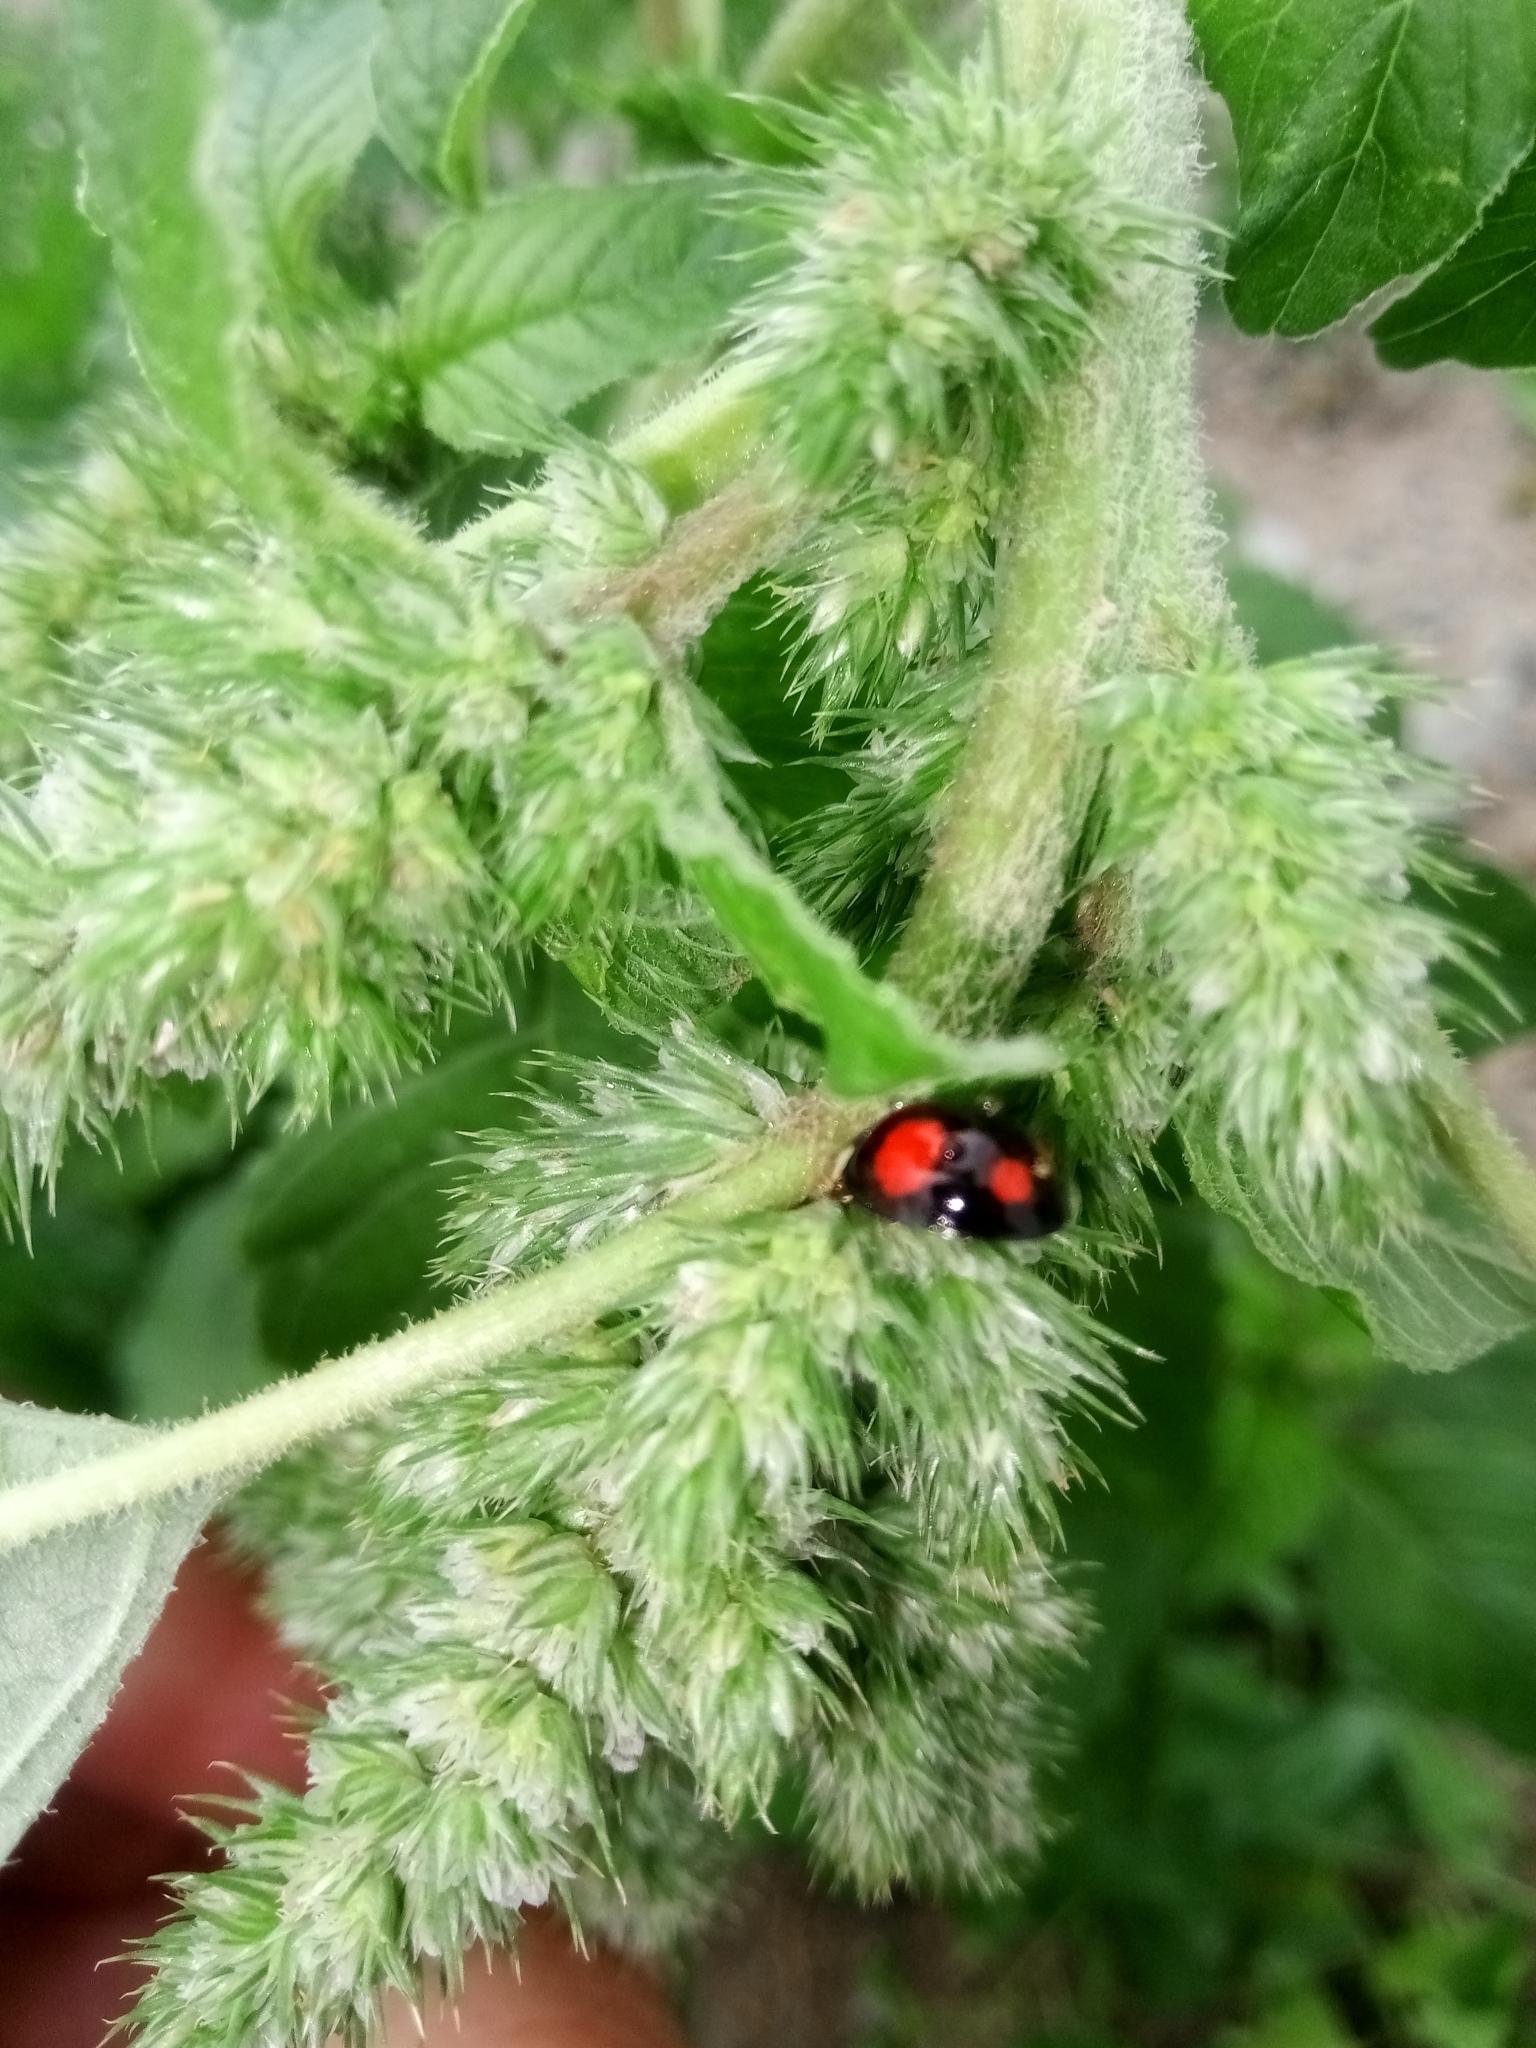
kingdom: Animalia
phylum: Arthropoda
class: Insecta
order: Coleoptera
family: Coccinellidae
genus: Harmonia
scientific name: Harmonia axyridis
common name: Harlequin ladybird
